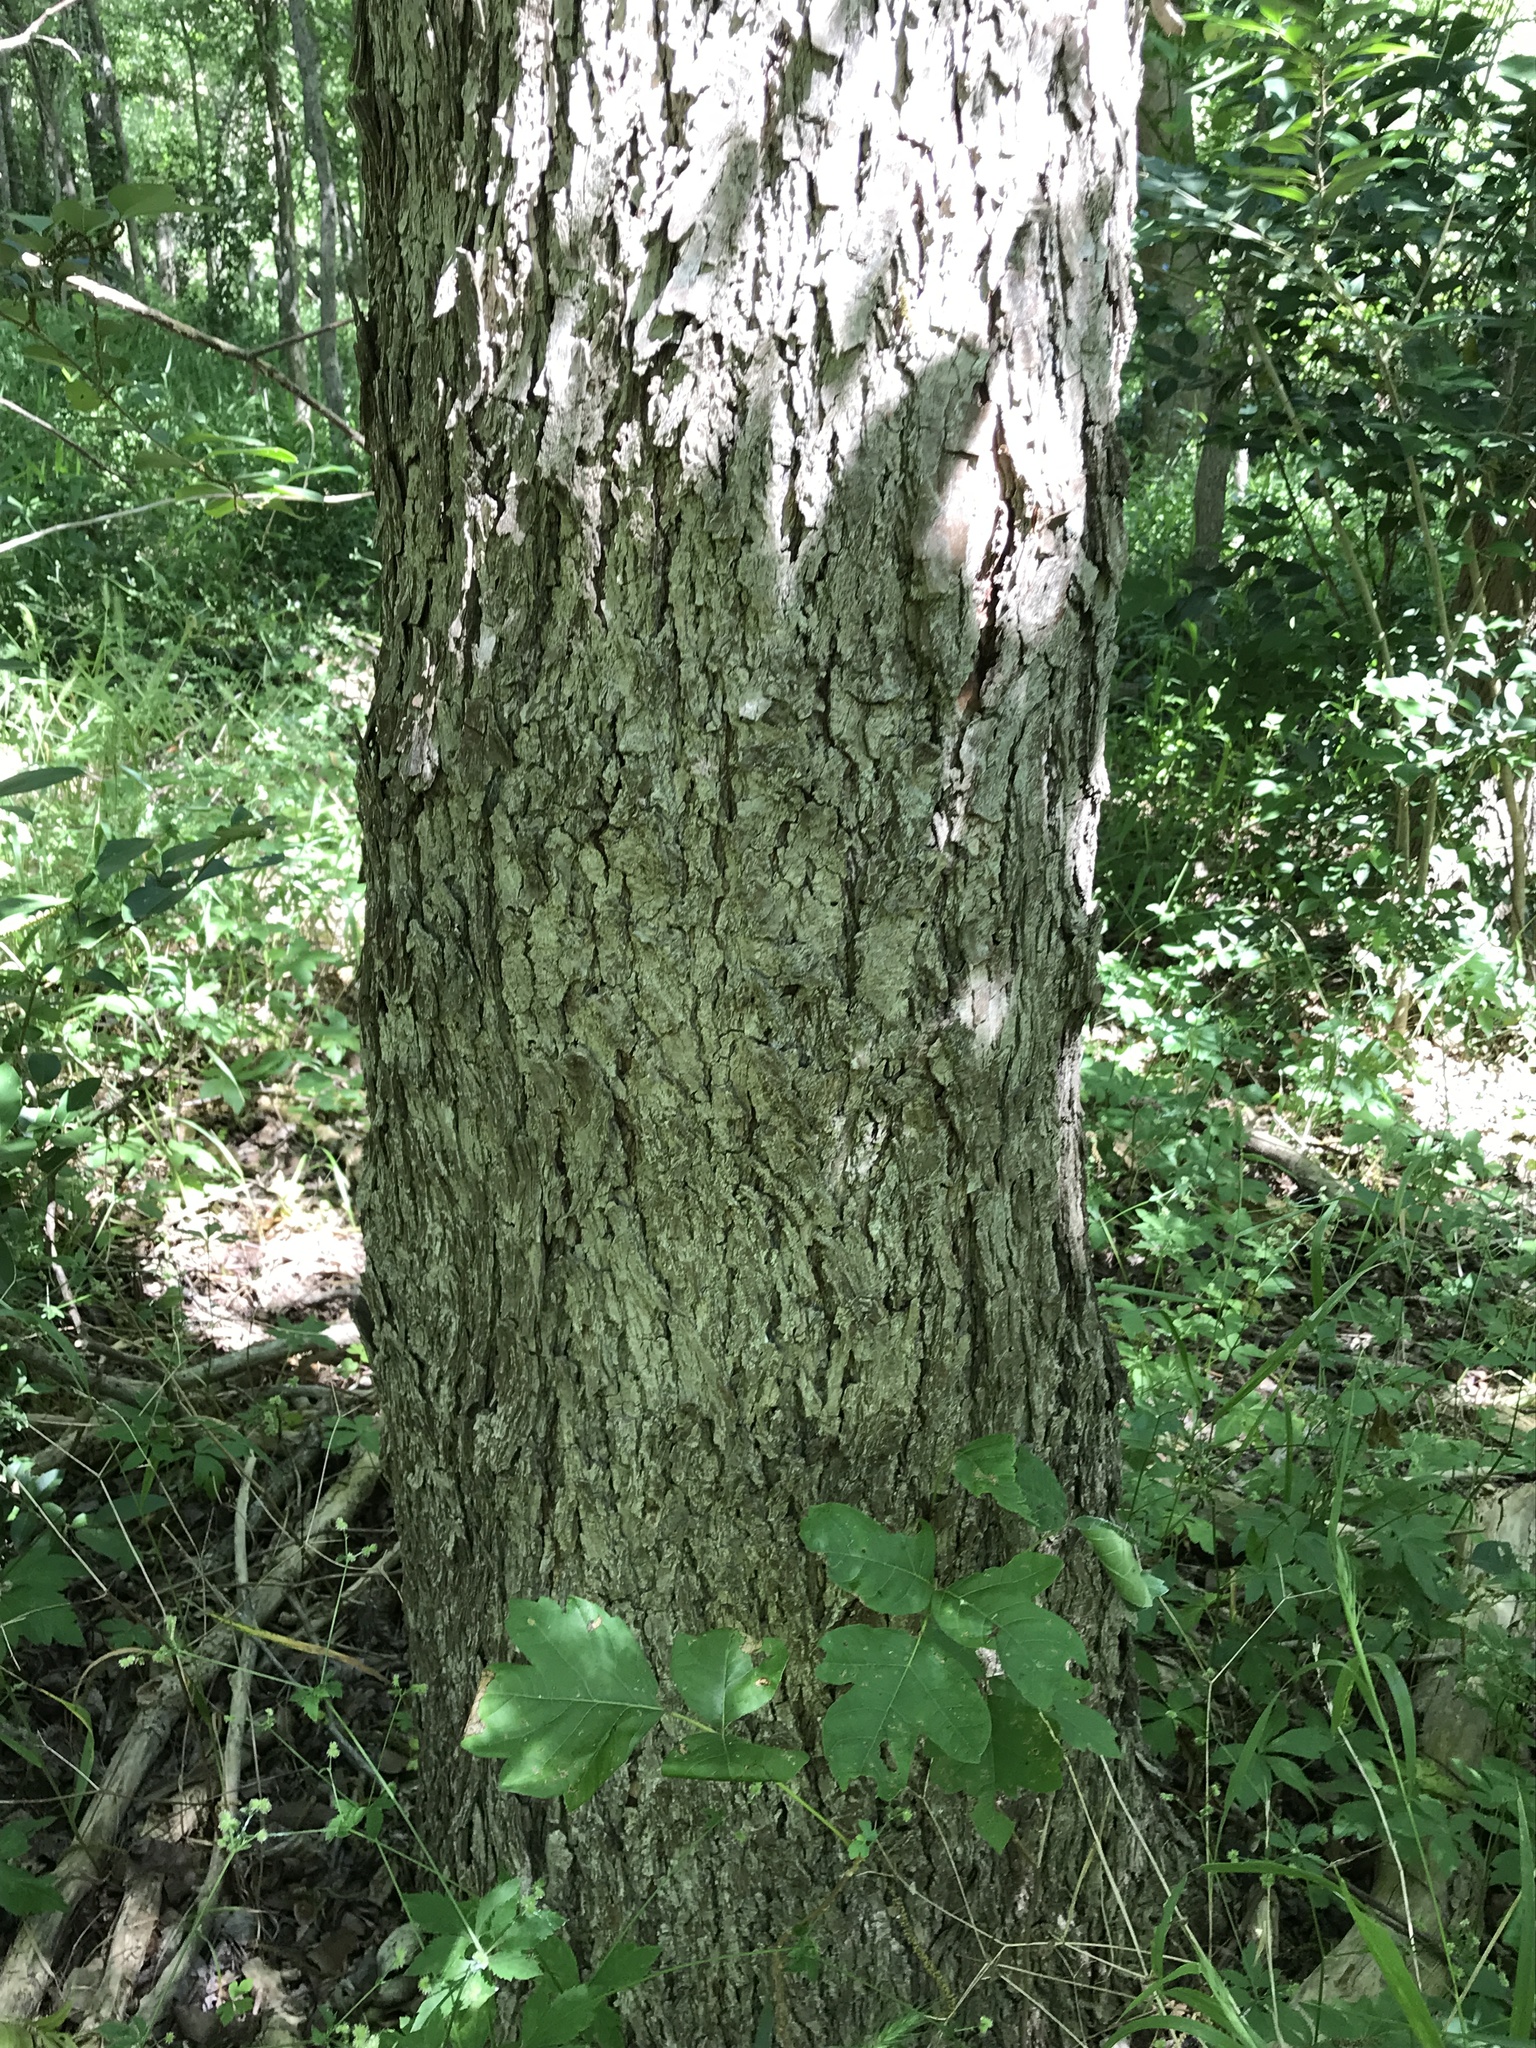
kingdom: Plantae
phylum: Tracheophyta
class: Magnoliopsida
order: Fagales
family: Juglandaceae
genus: Carya
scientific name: Carya illinoinensis
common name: Pecan
